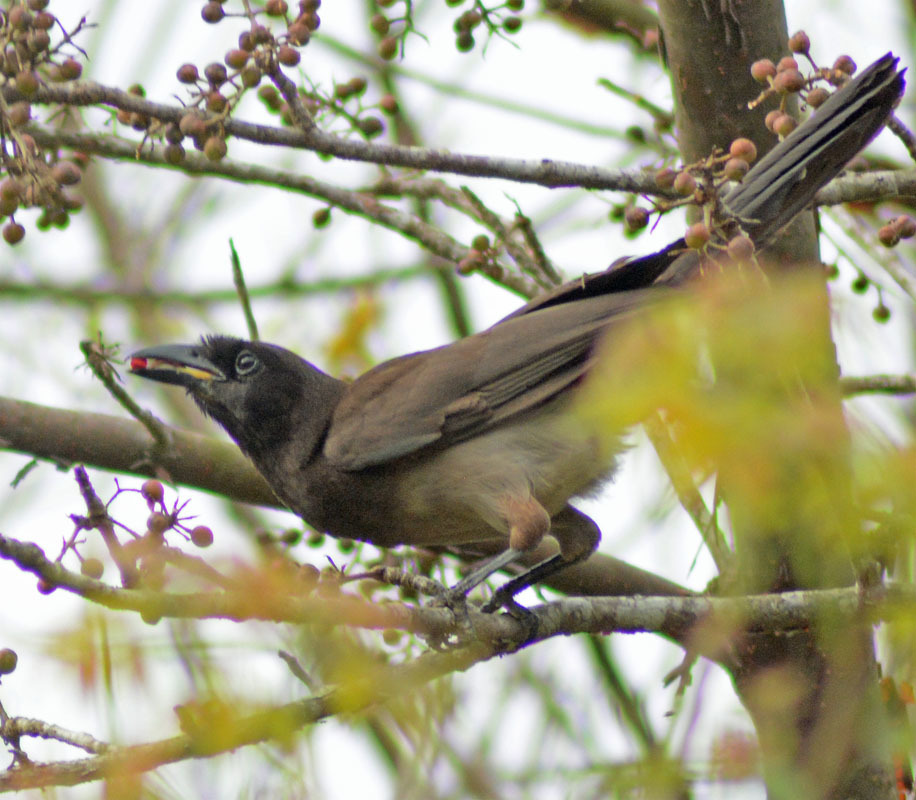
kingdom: Animalia
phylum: Chordata
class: Aves
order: Passeriformes
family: Corvidae
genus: Psilorhinus
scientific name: Psilorhinus morio
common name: Brown jay
